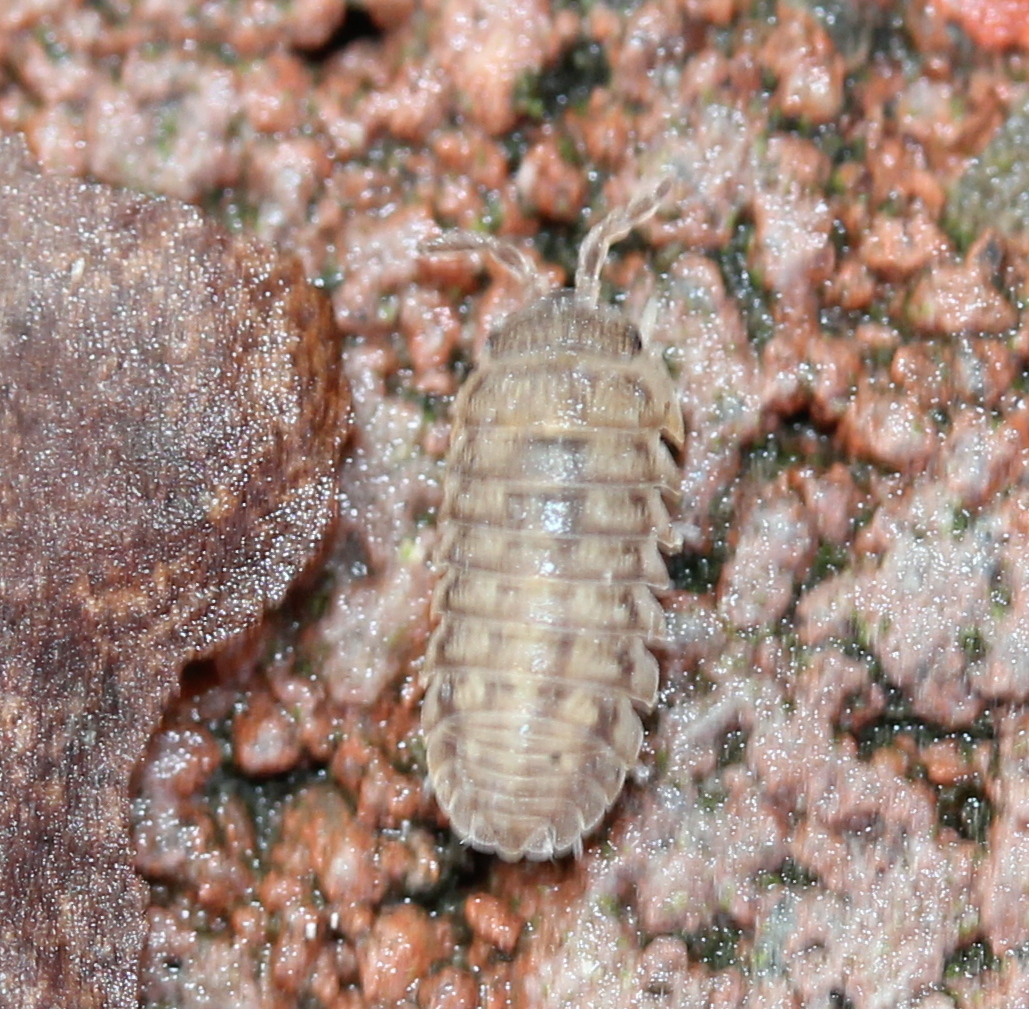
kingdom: Animalia
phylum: Arthropoda
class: Malacostraca
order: Isopoda
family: Armadillidiidae
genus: Armadillidium
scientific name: Armadillidium nasatum
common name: Isopod
